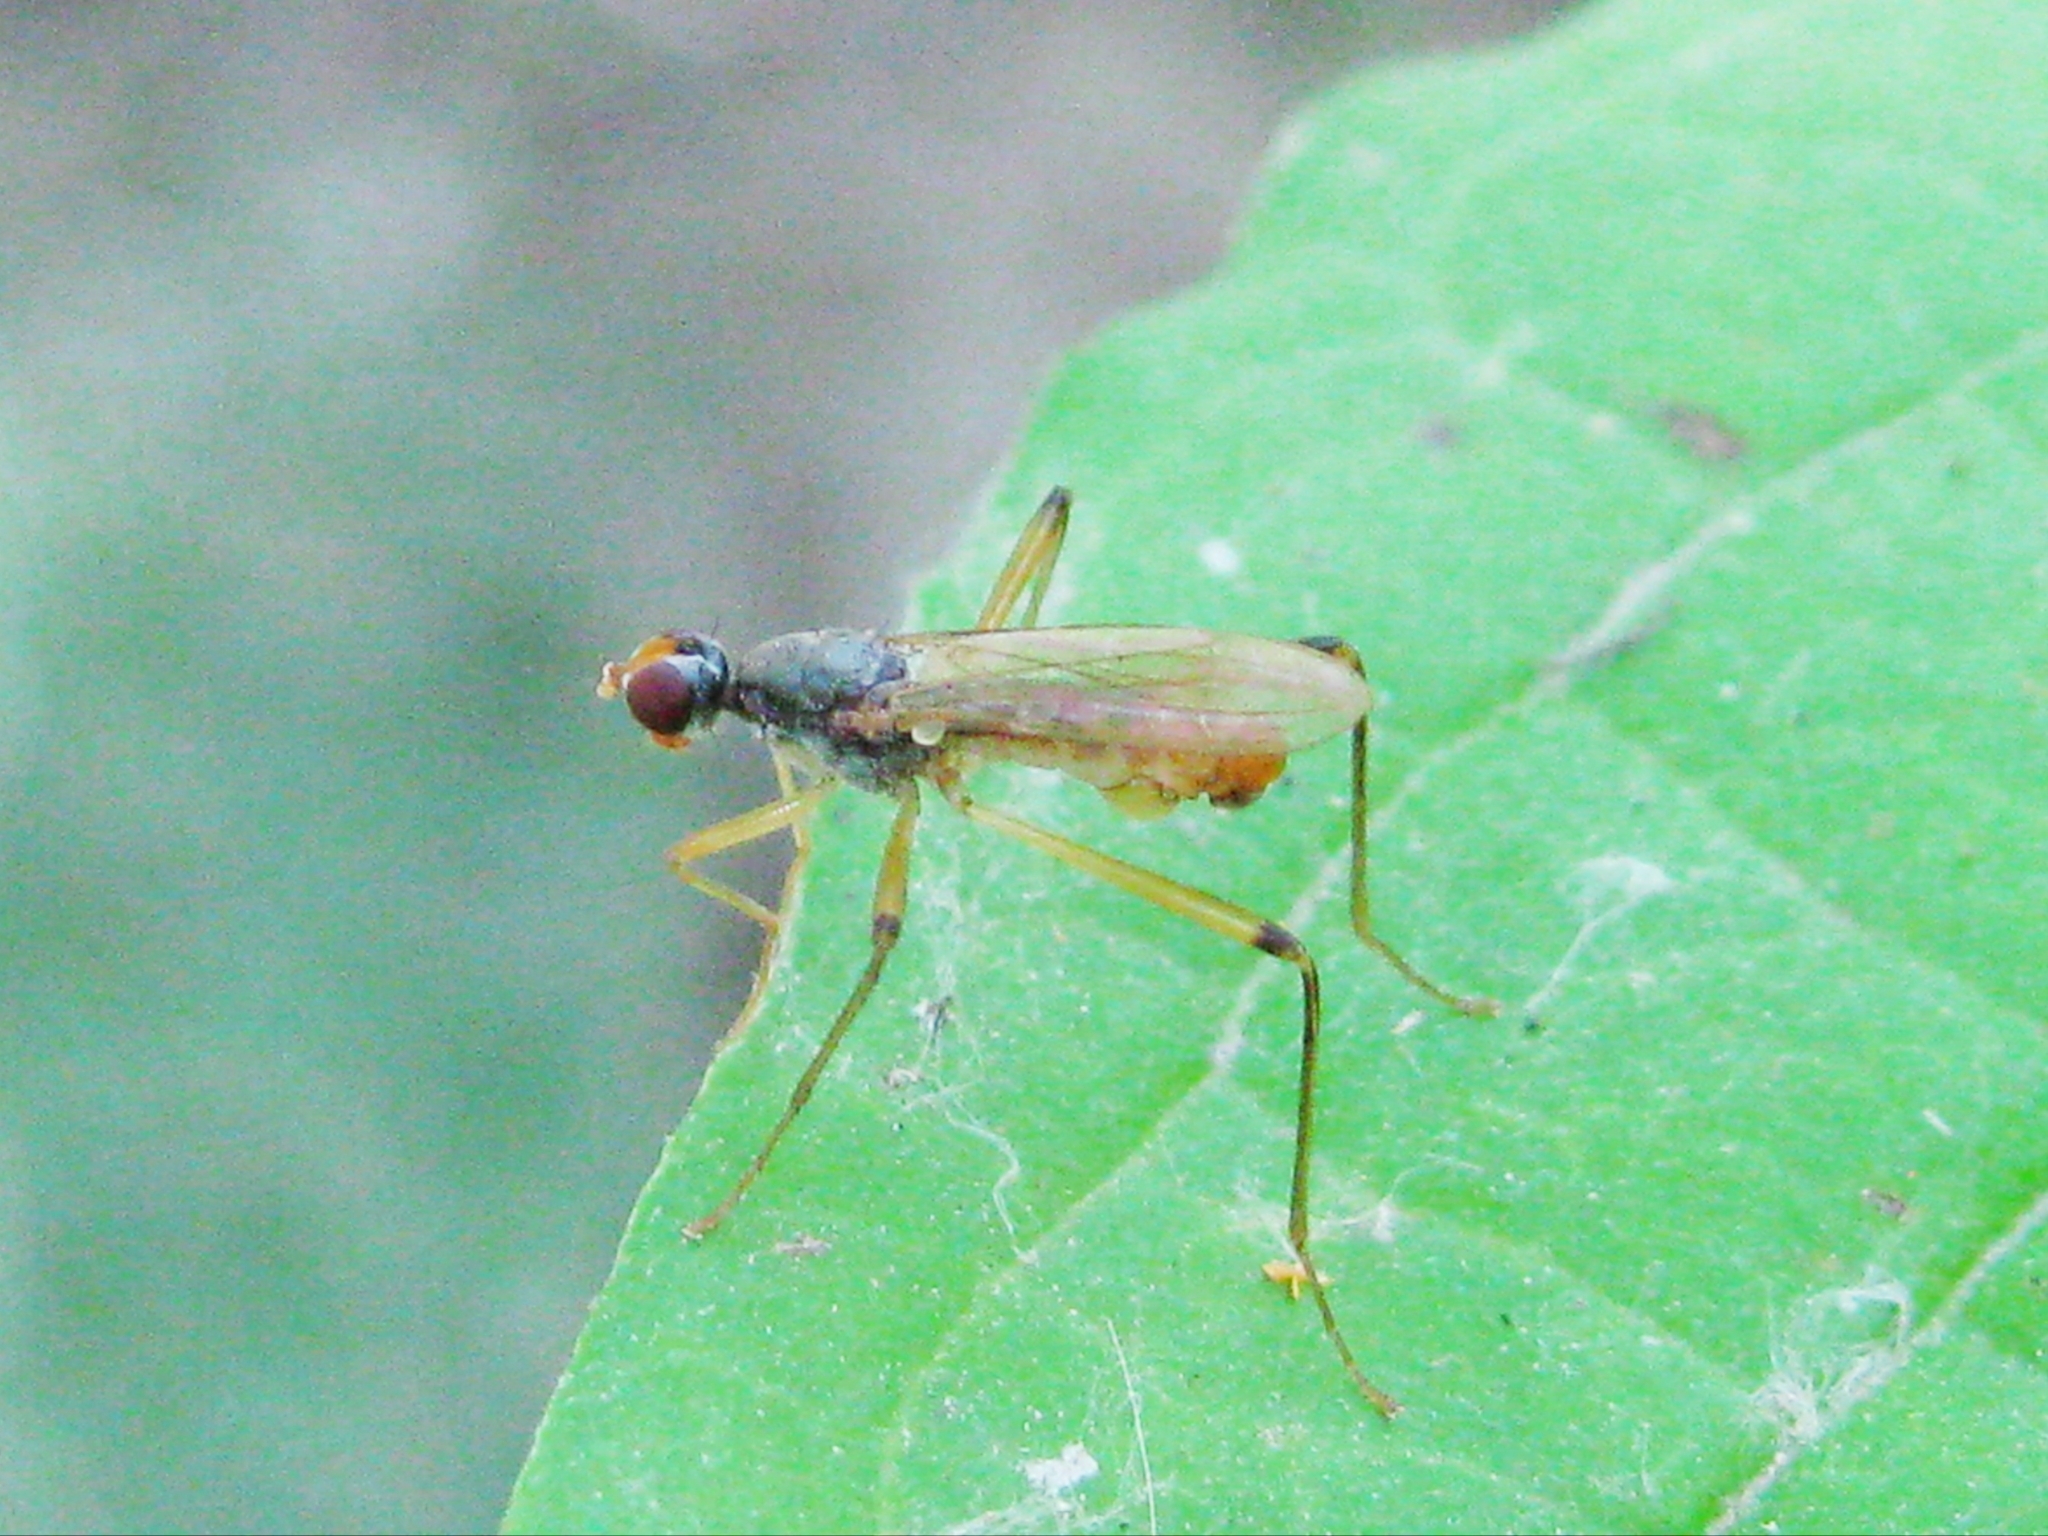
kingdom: Animalia
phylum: Arthropoda
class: Insecta
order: Diptera
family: Micropezidae
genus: Neria
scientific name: Neria
